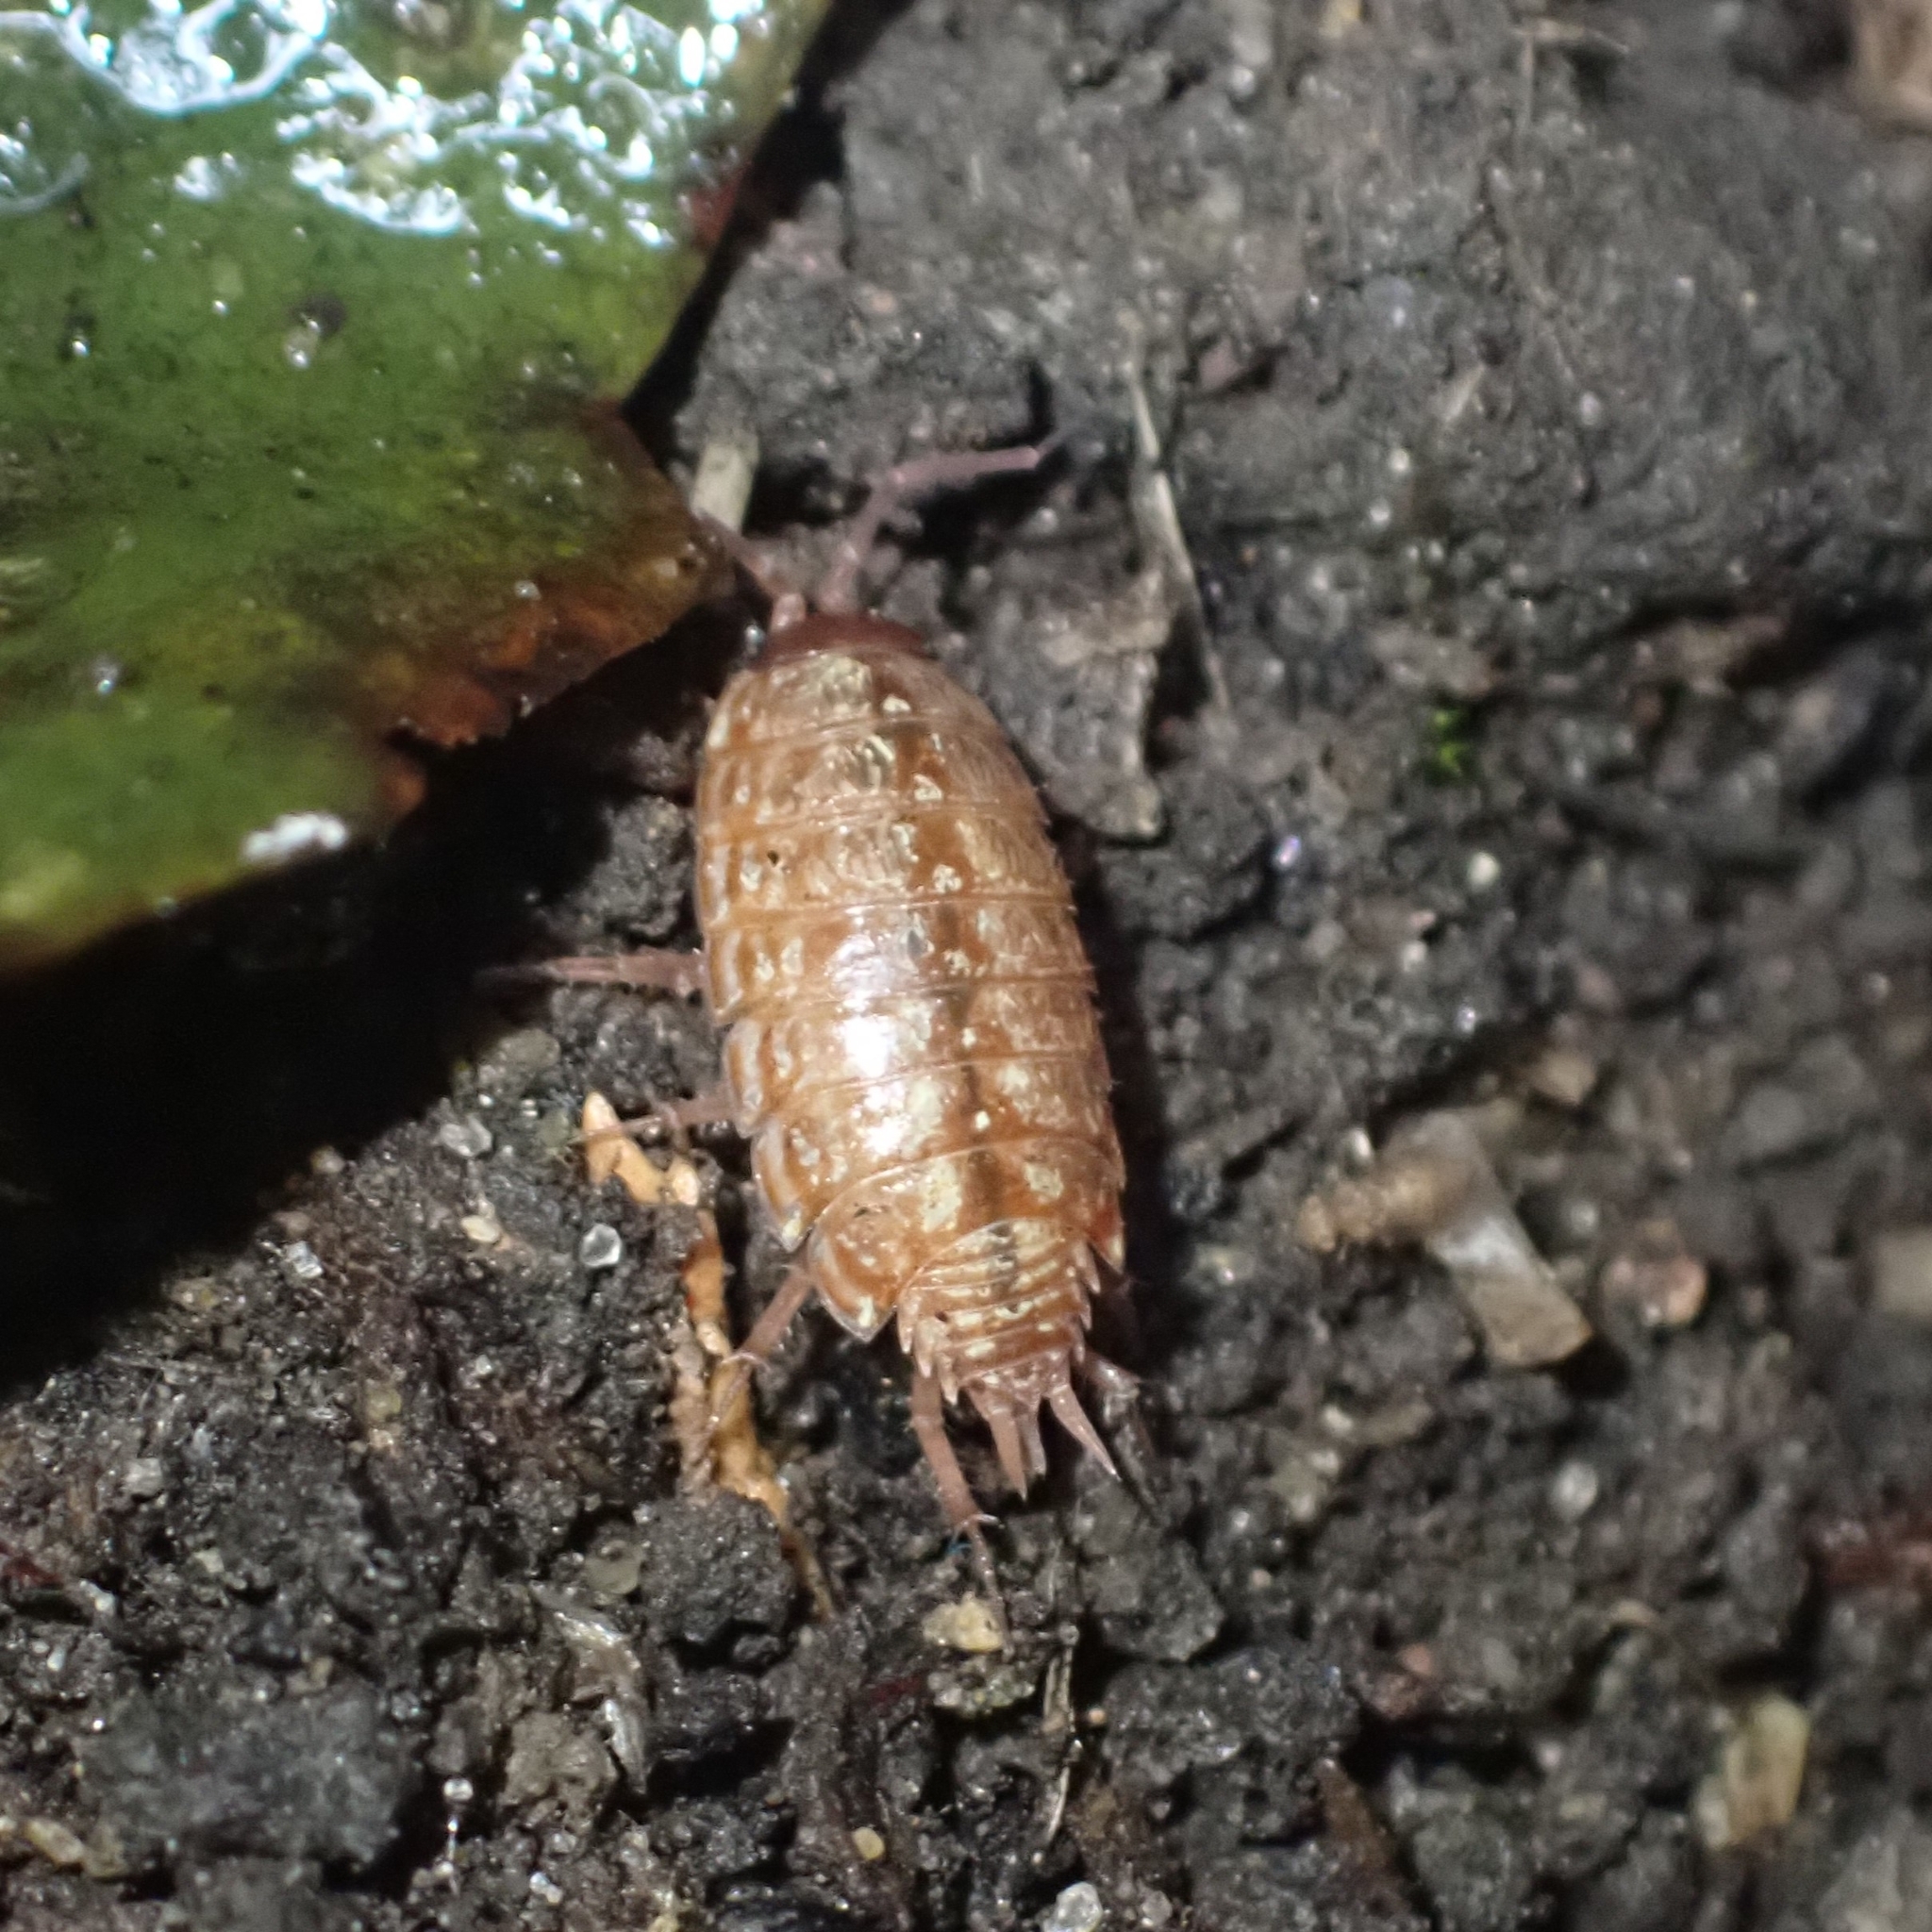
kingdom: Animalia
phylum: Arthropoda
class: Malacostraca
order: Isopoda
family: Philosciidae
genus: Philoscia
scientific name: Philoscia muscorum
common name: Common striped woodlouse
